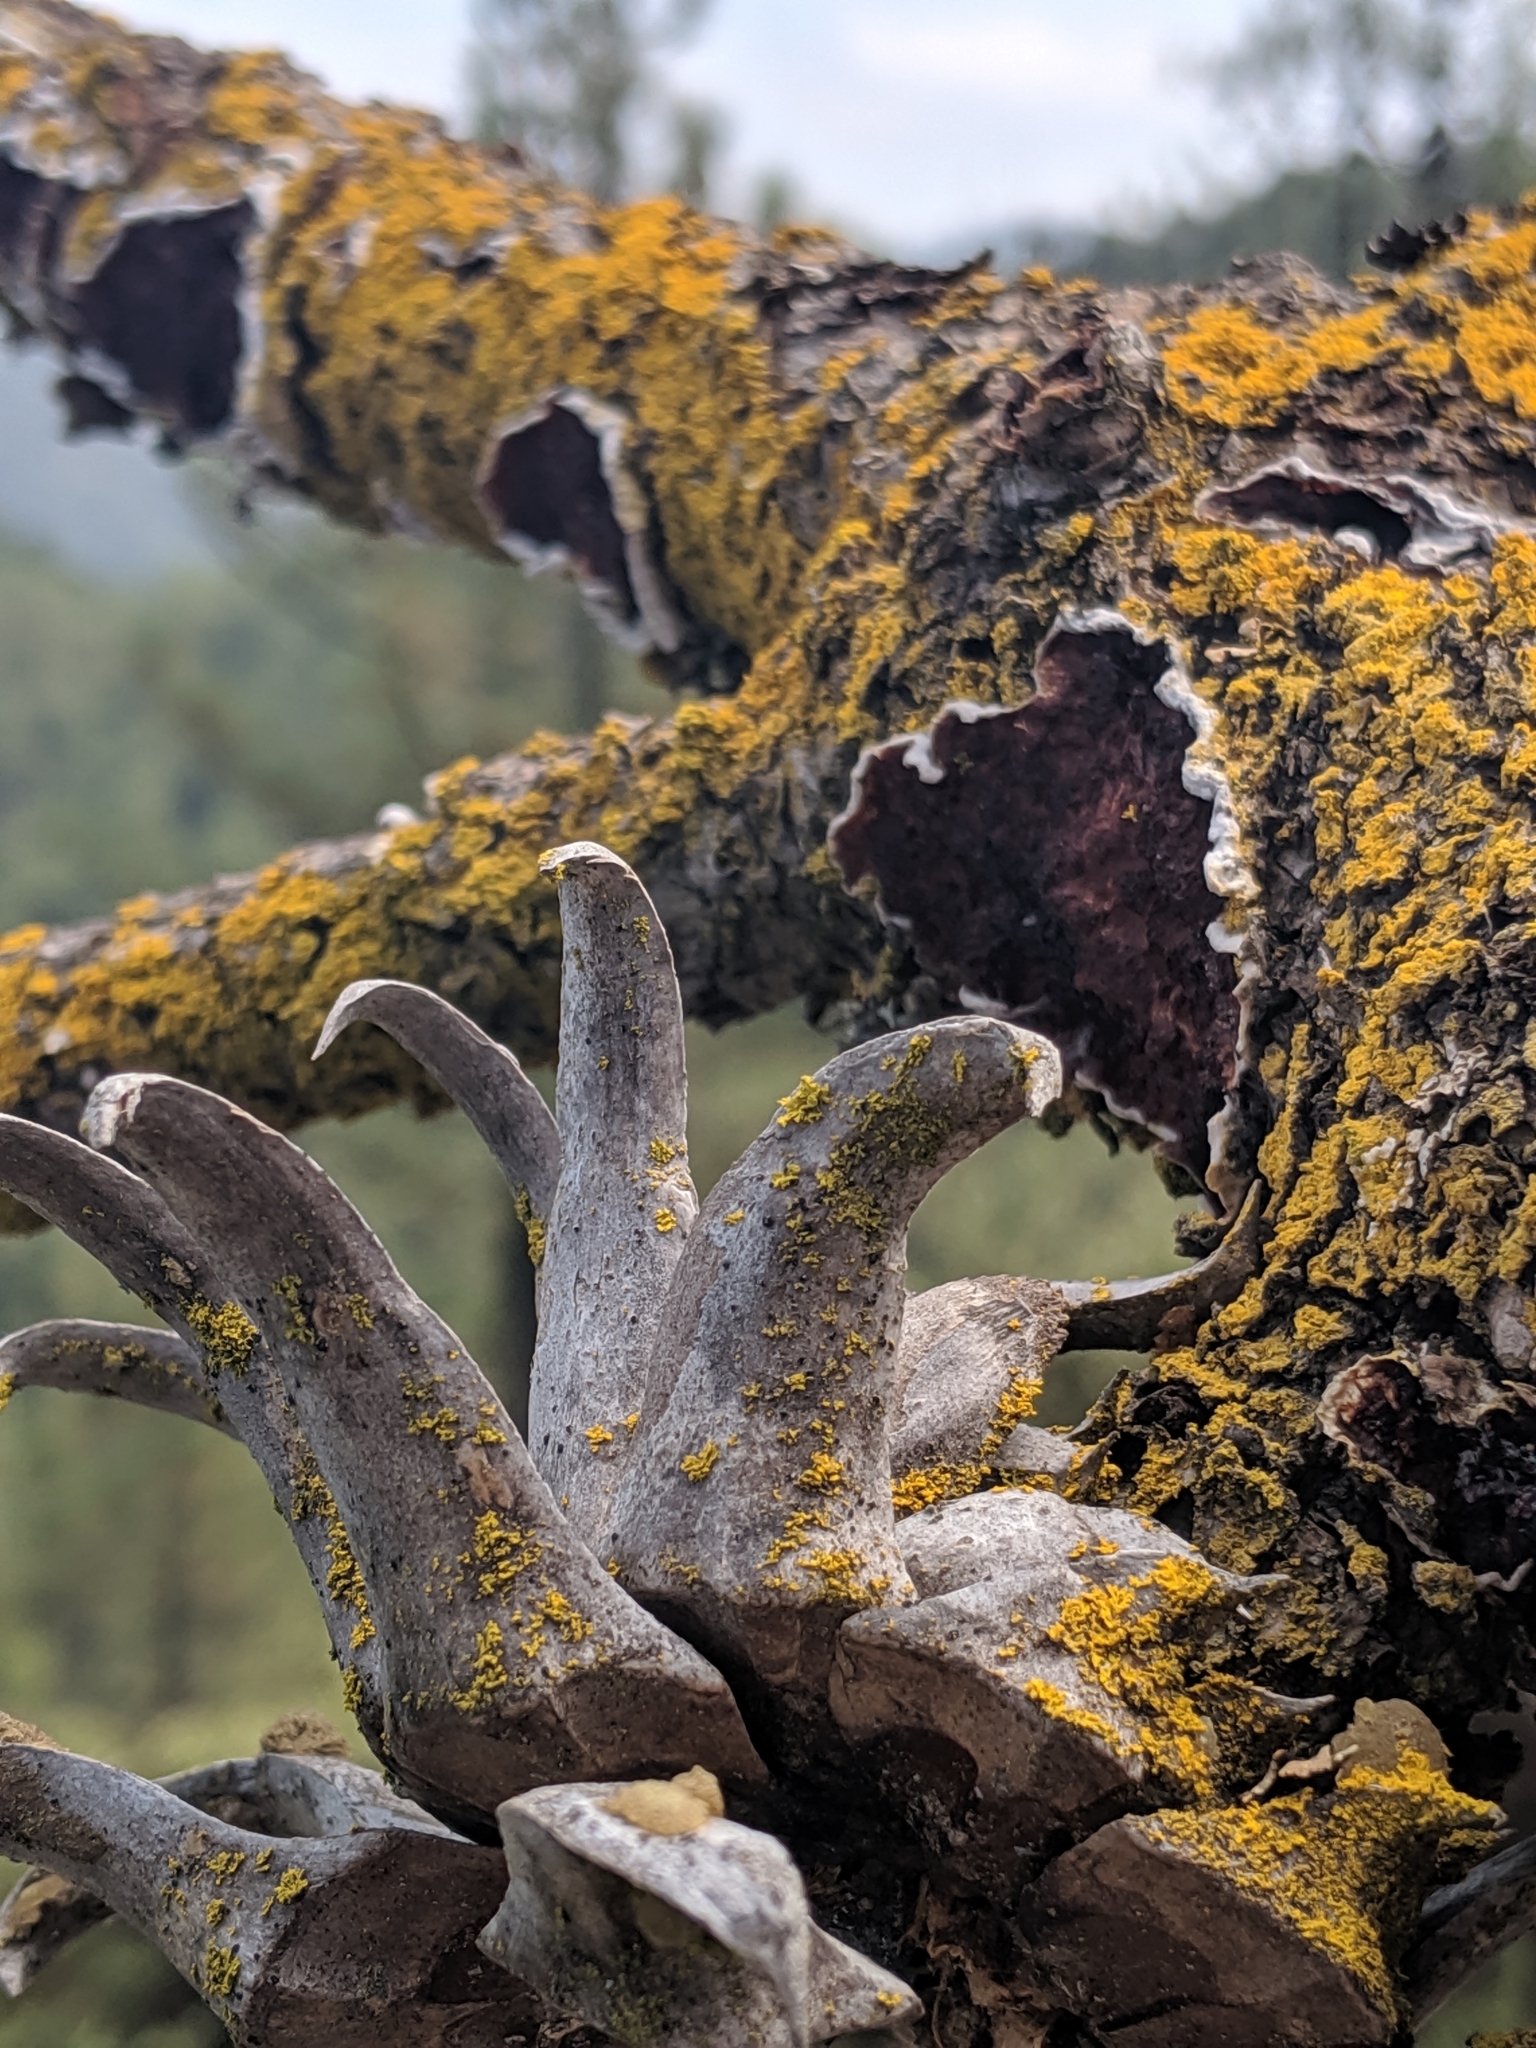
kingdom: Plantae
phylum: Tracheophyta
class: Pinopsida
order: Pinales
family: Pinaceae
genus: Pinus
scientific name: Pinus coulteri
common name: Coulter pine
